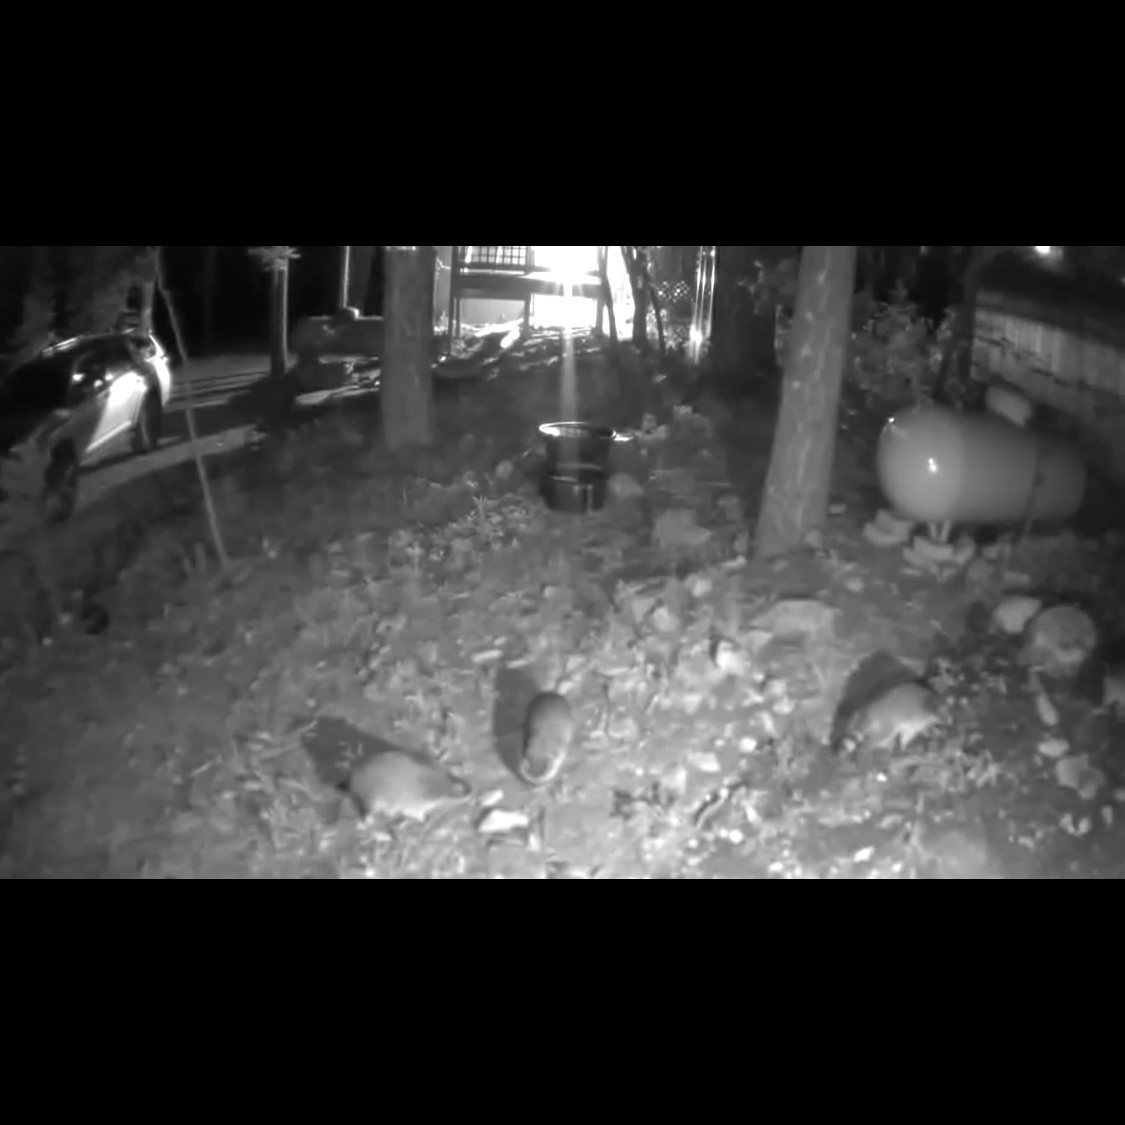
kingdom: Animalia
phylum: Chordata
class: Mammalia
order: Carnivora
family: Procyonidae
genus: Procyon
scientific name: Procyon lotor
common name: Raccoon
